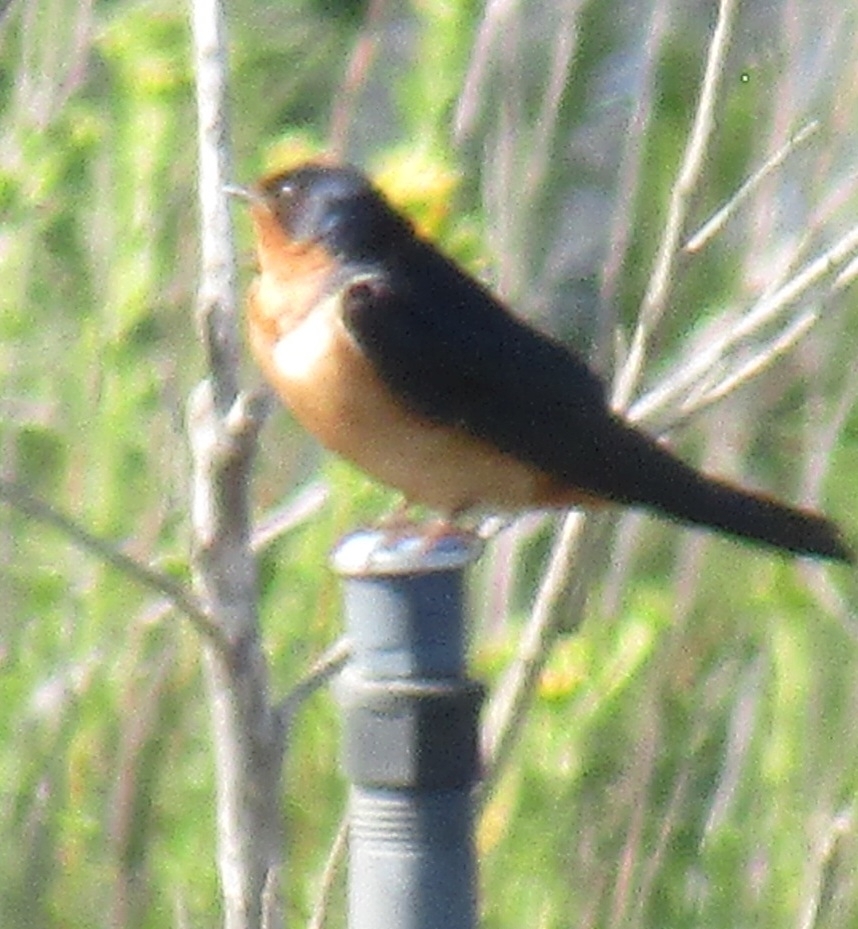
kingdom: Animalia
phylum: Chordata
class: Aves
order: Passeriformes
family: Hirundinidae
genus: Hirundo
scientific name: Hirundo rustica
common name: Barn swallow
